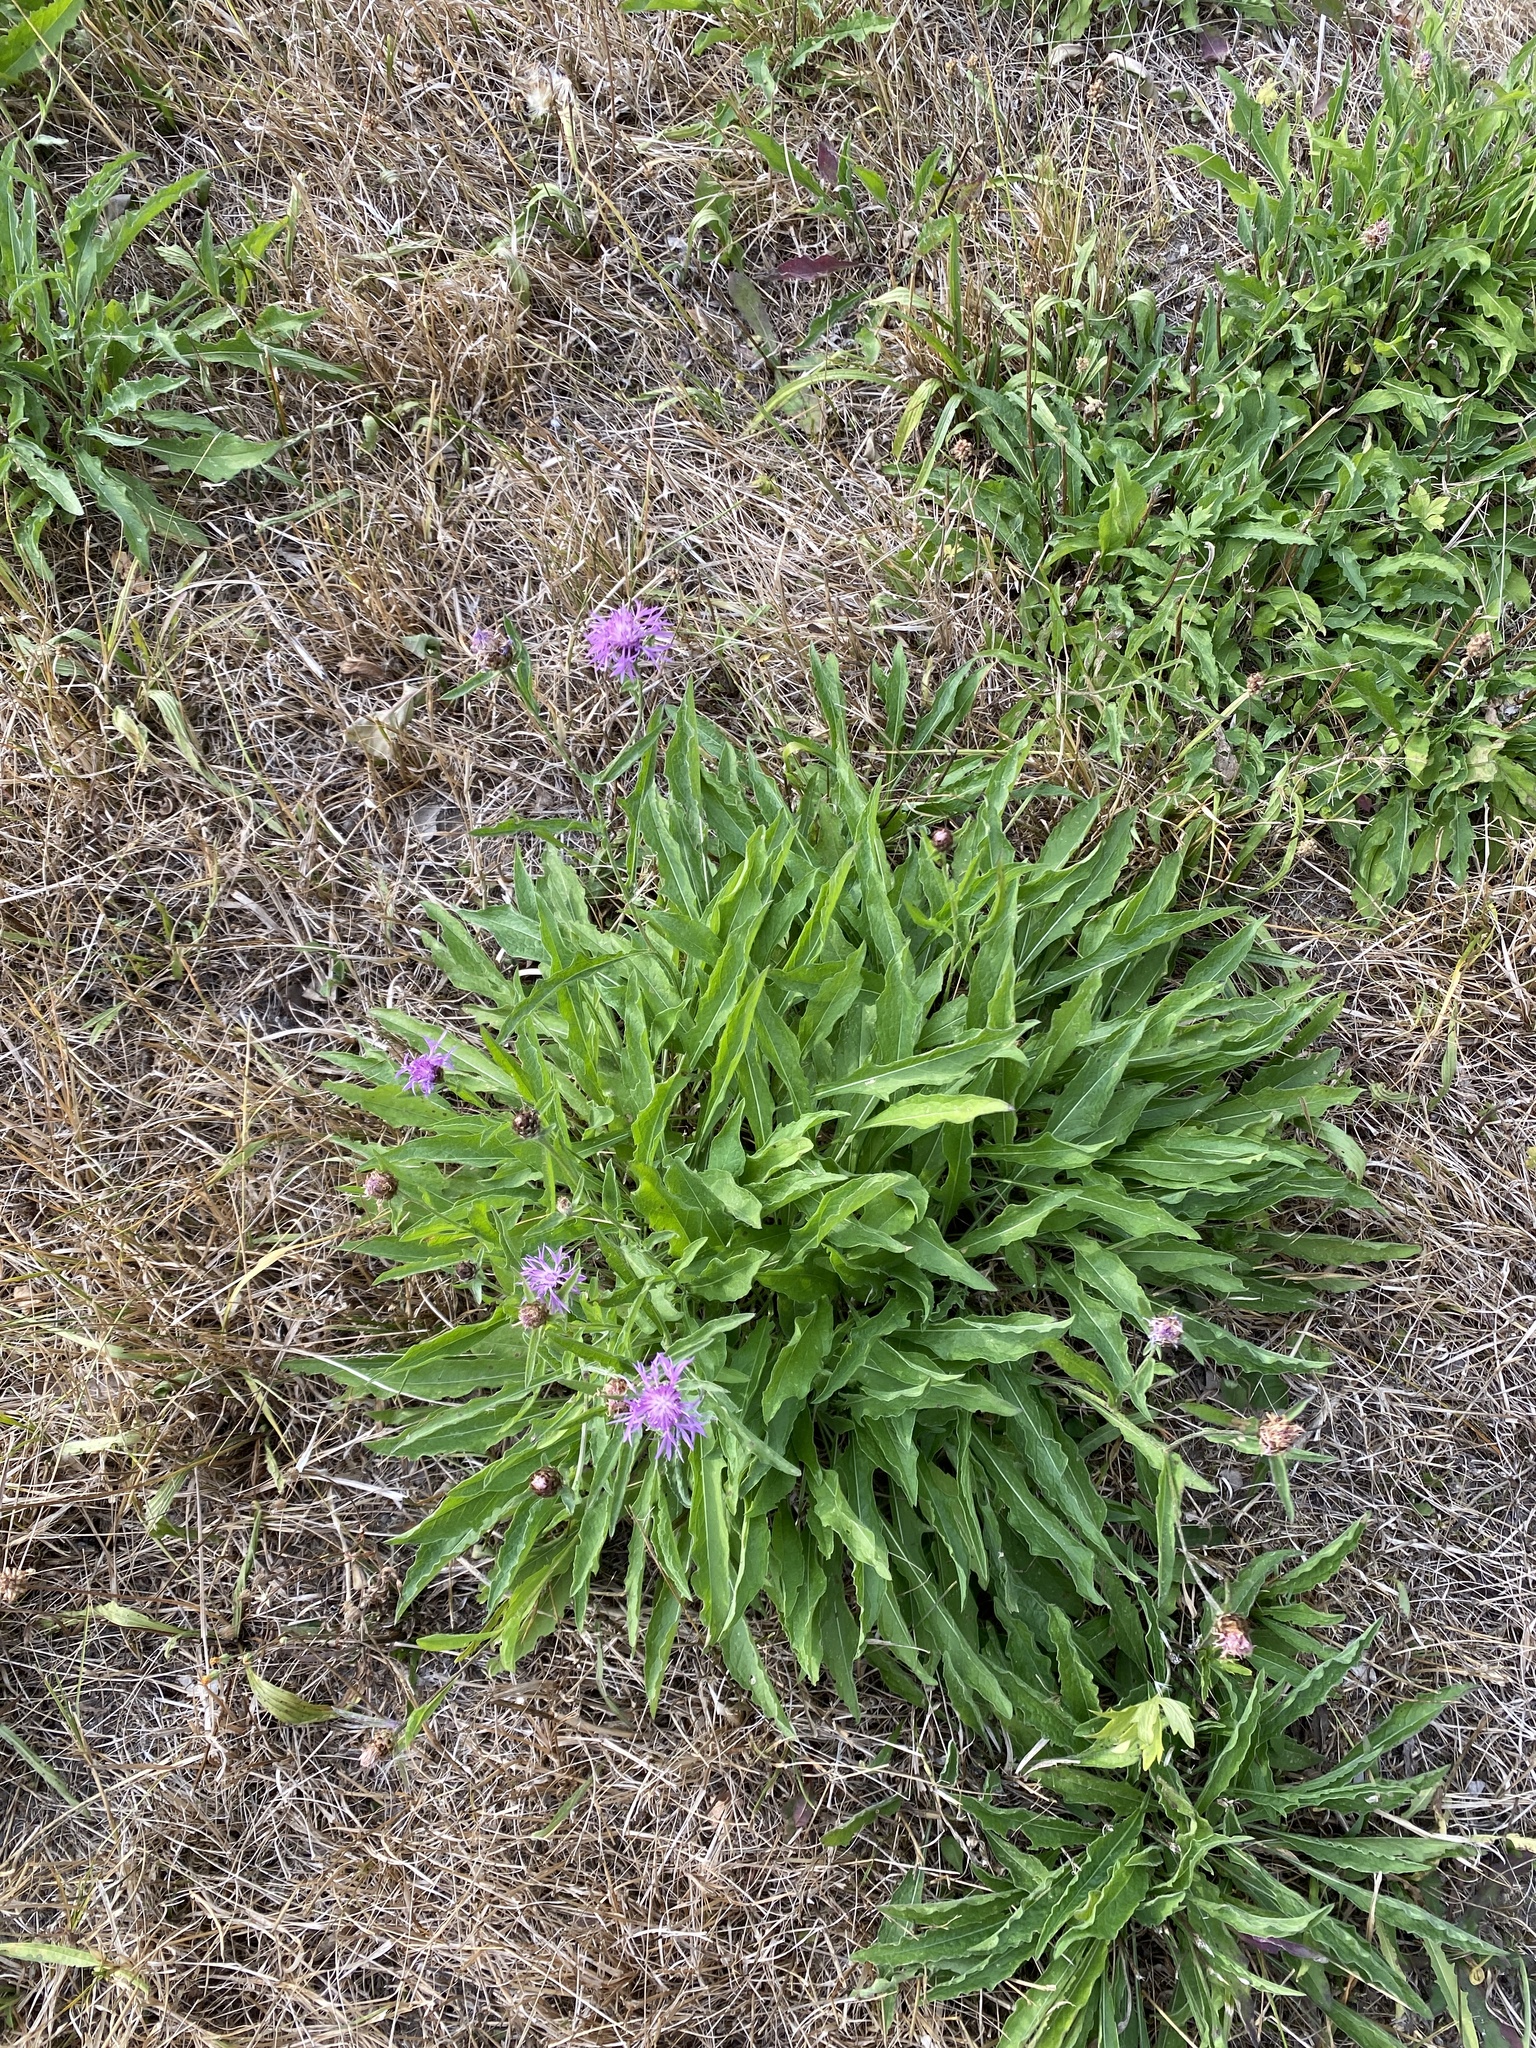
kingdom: Plantae
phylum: Tracheophyta
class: Magnoliopsida
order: Asterales
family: Asteraceae
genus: Centaurea
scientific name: Centaurea jacea
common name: Brown knapweed
